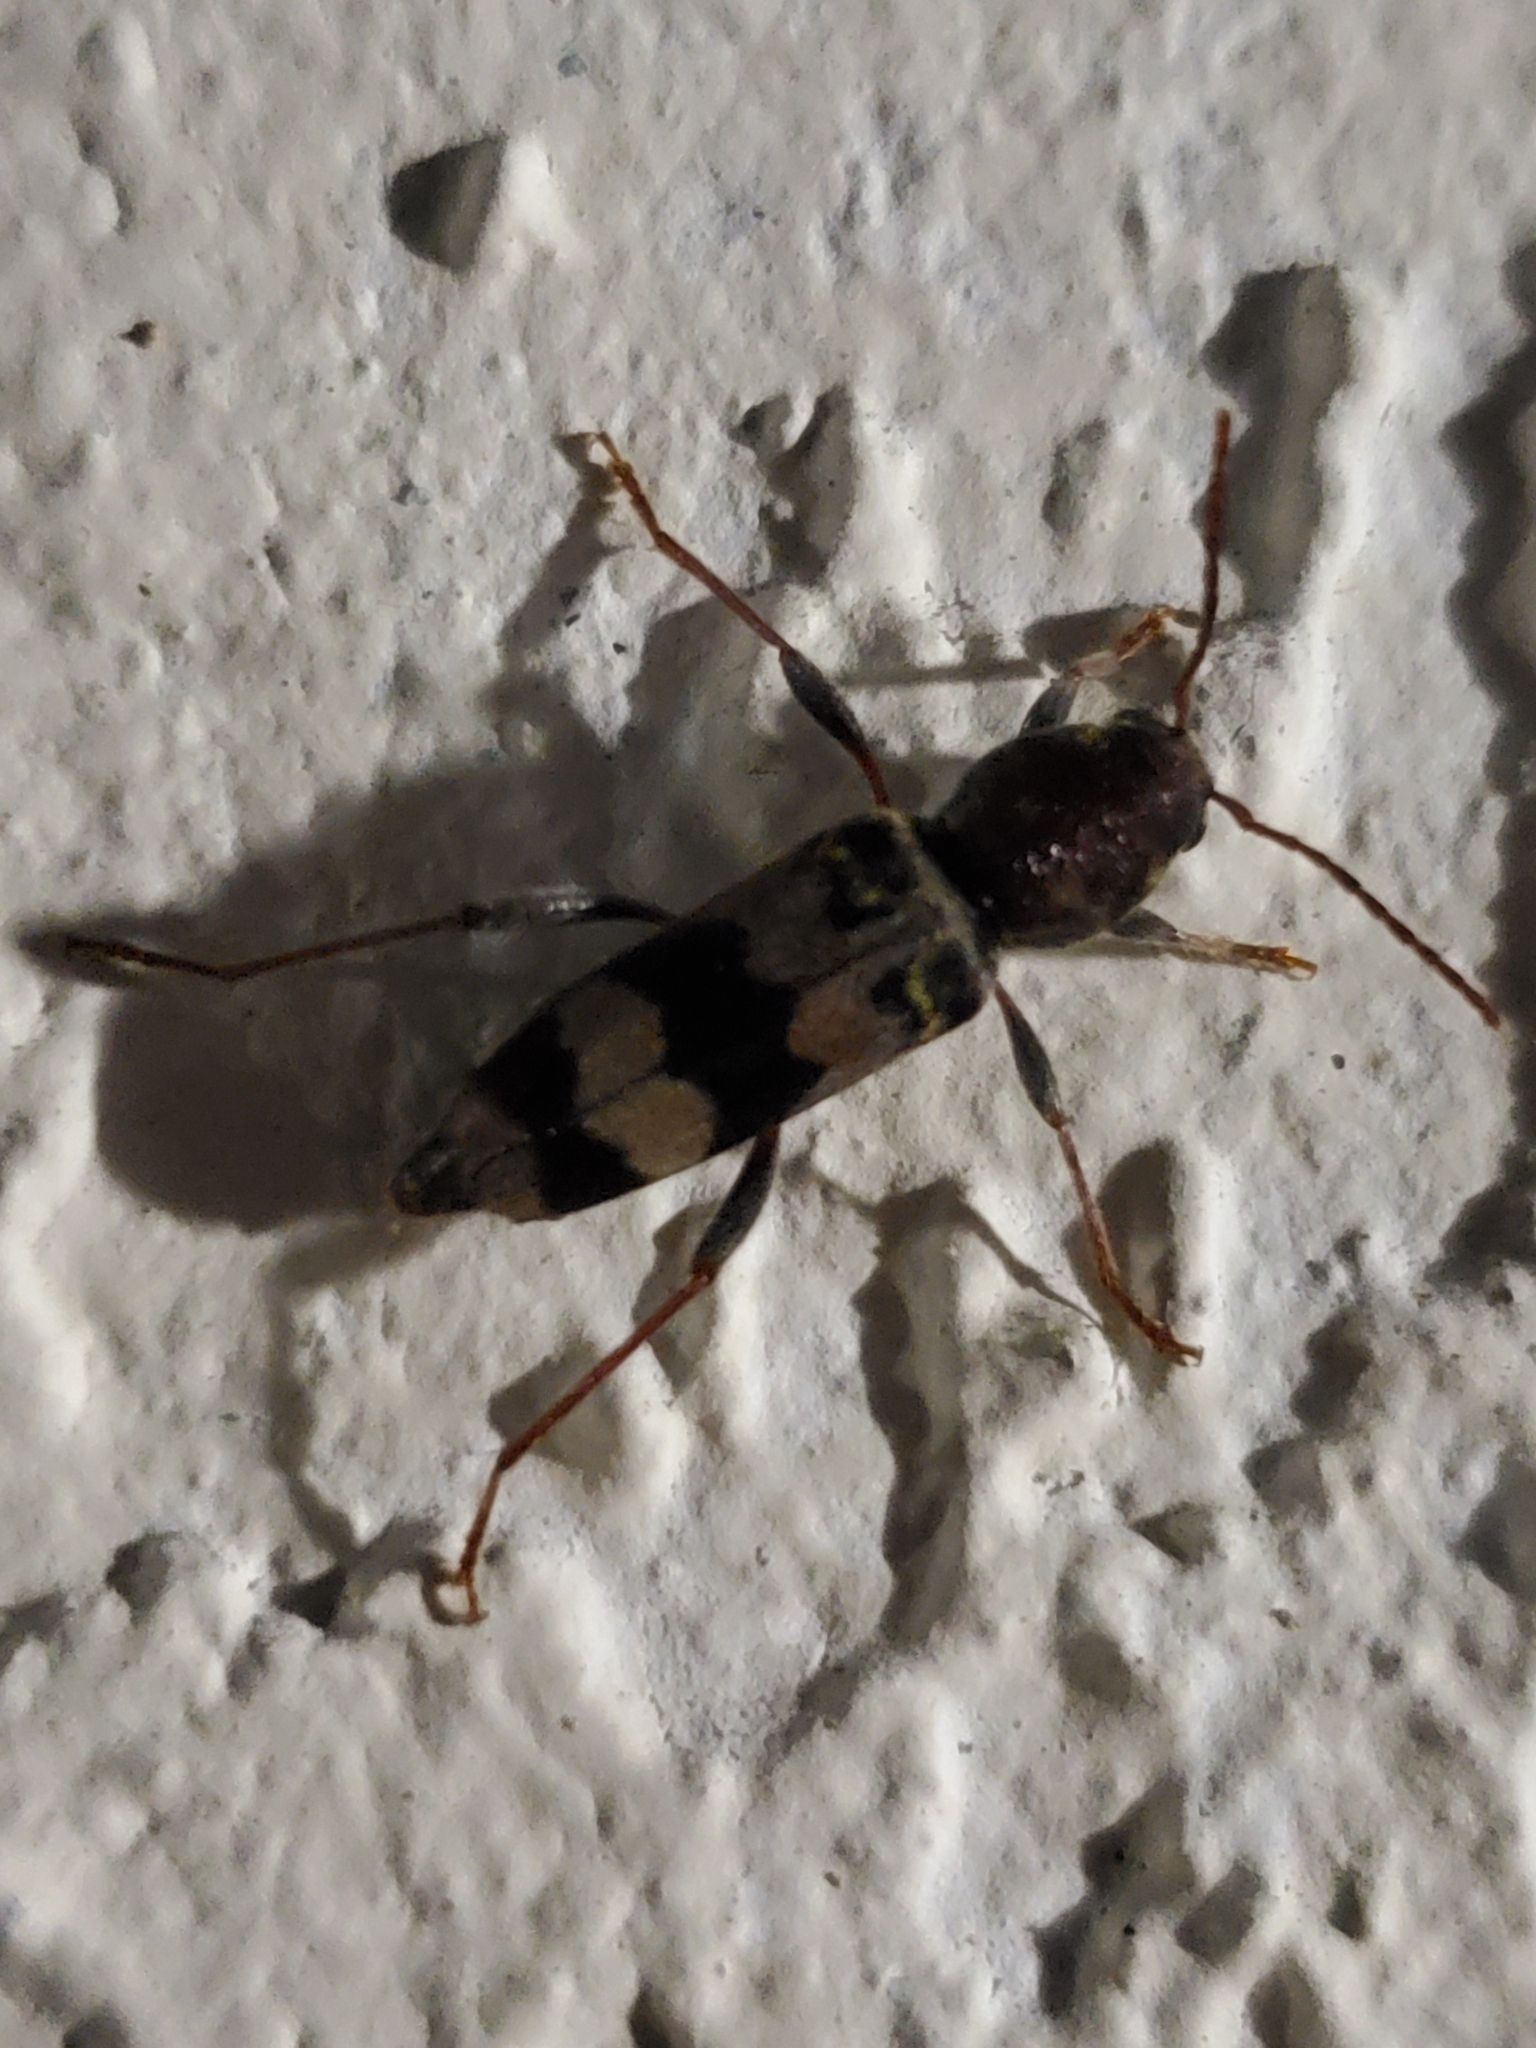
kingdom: Animalia
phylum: Arthropoda
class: Insecta
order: Coleoptera
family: Cerambycidae
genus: Xylotrechus
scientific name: Xylotrechus colonus
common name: Long-horned beetle
